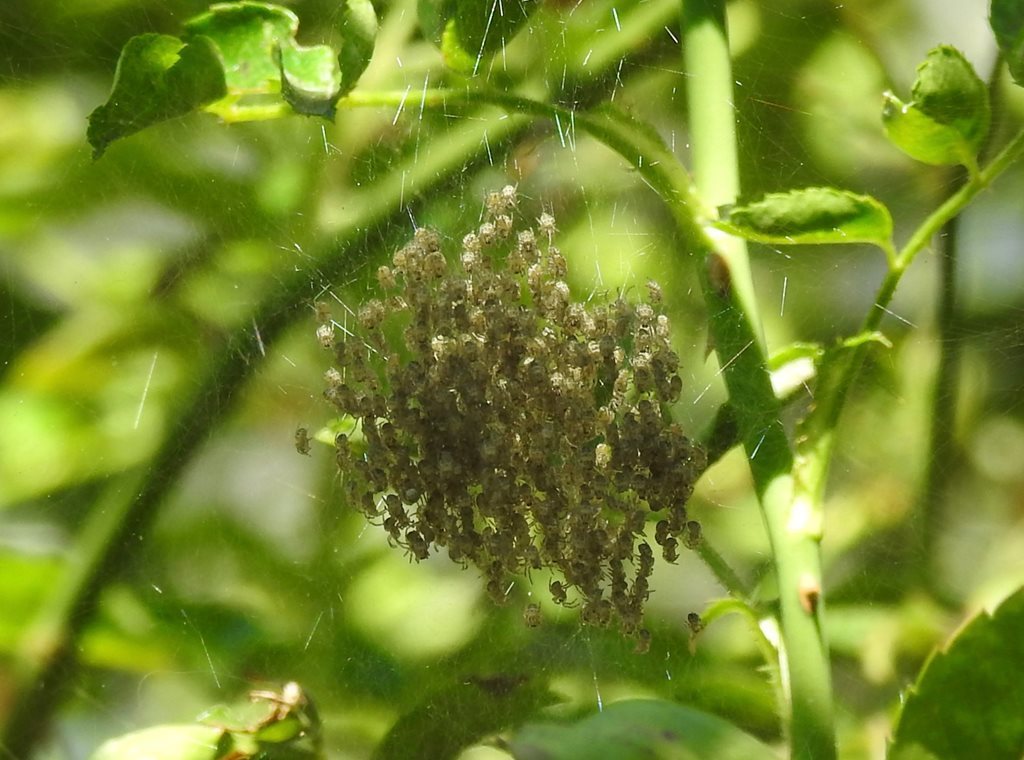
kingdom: Animalia
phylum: Arthropoda
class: Arachnida
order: Araneae
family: Araneidae
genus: Argiope
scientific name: Argiope keyserlingi
